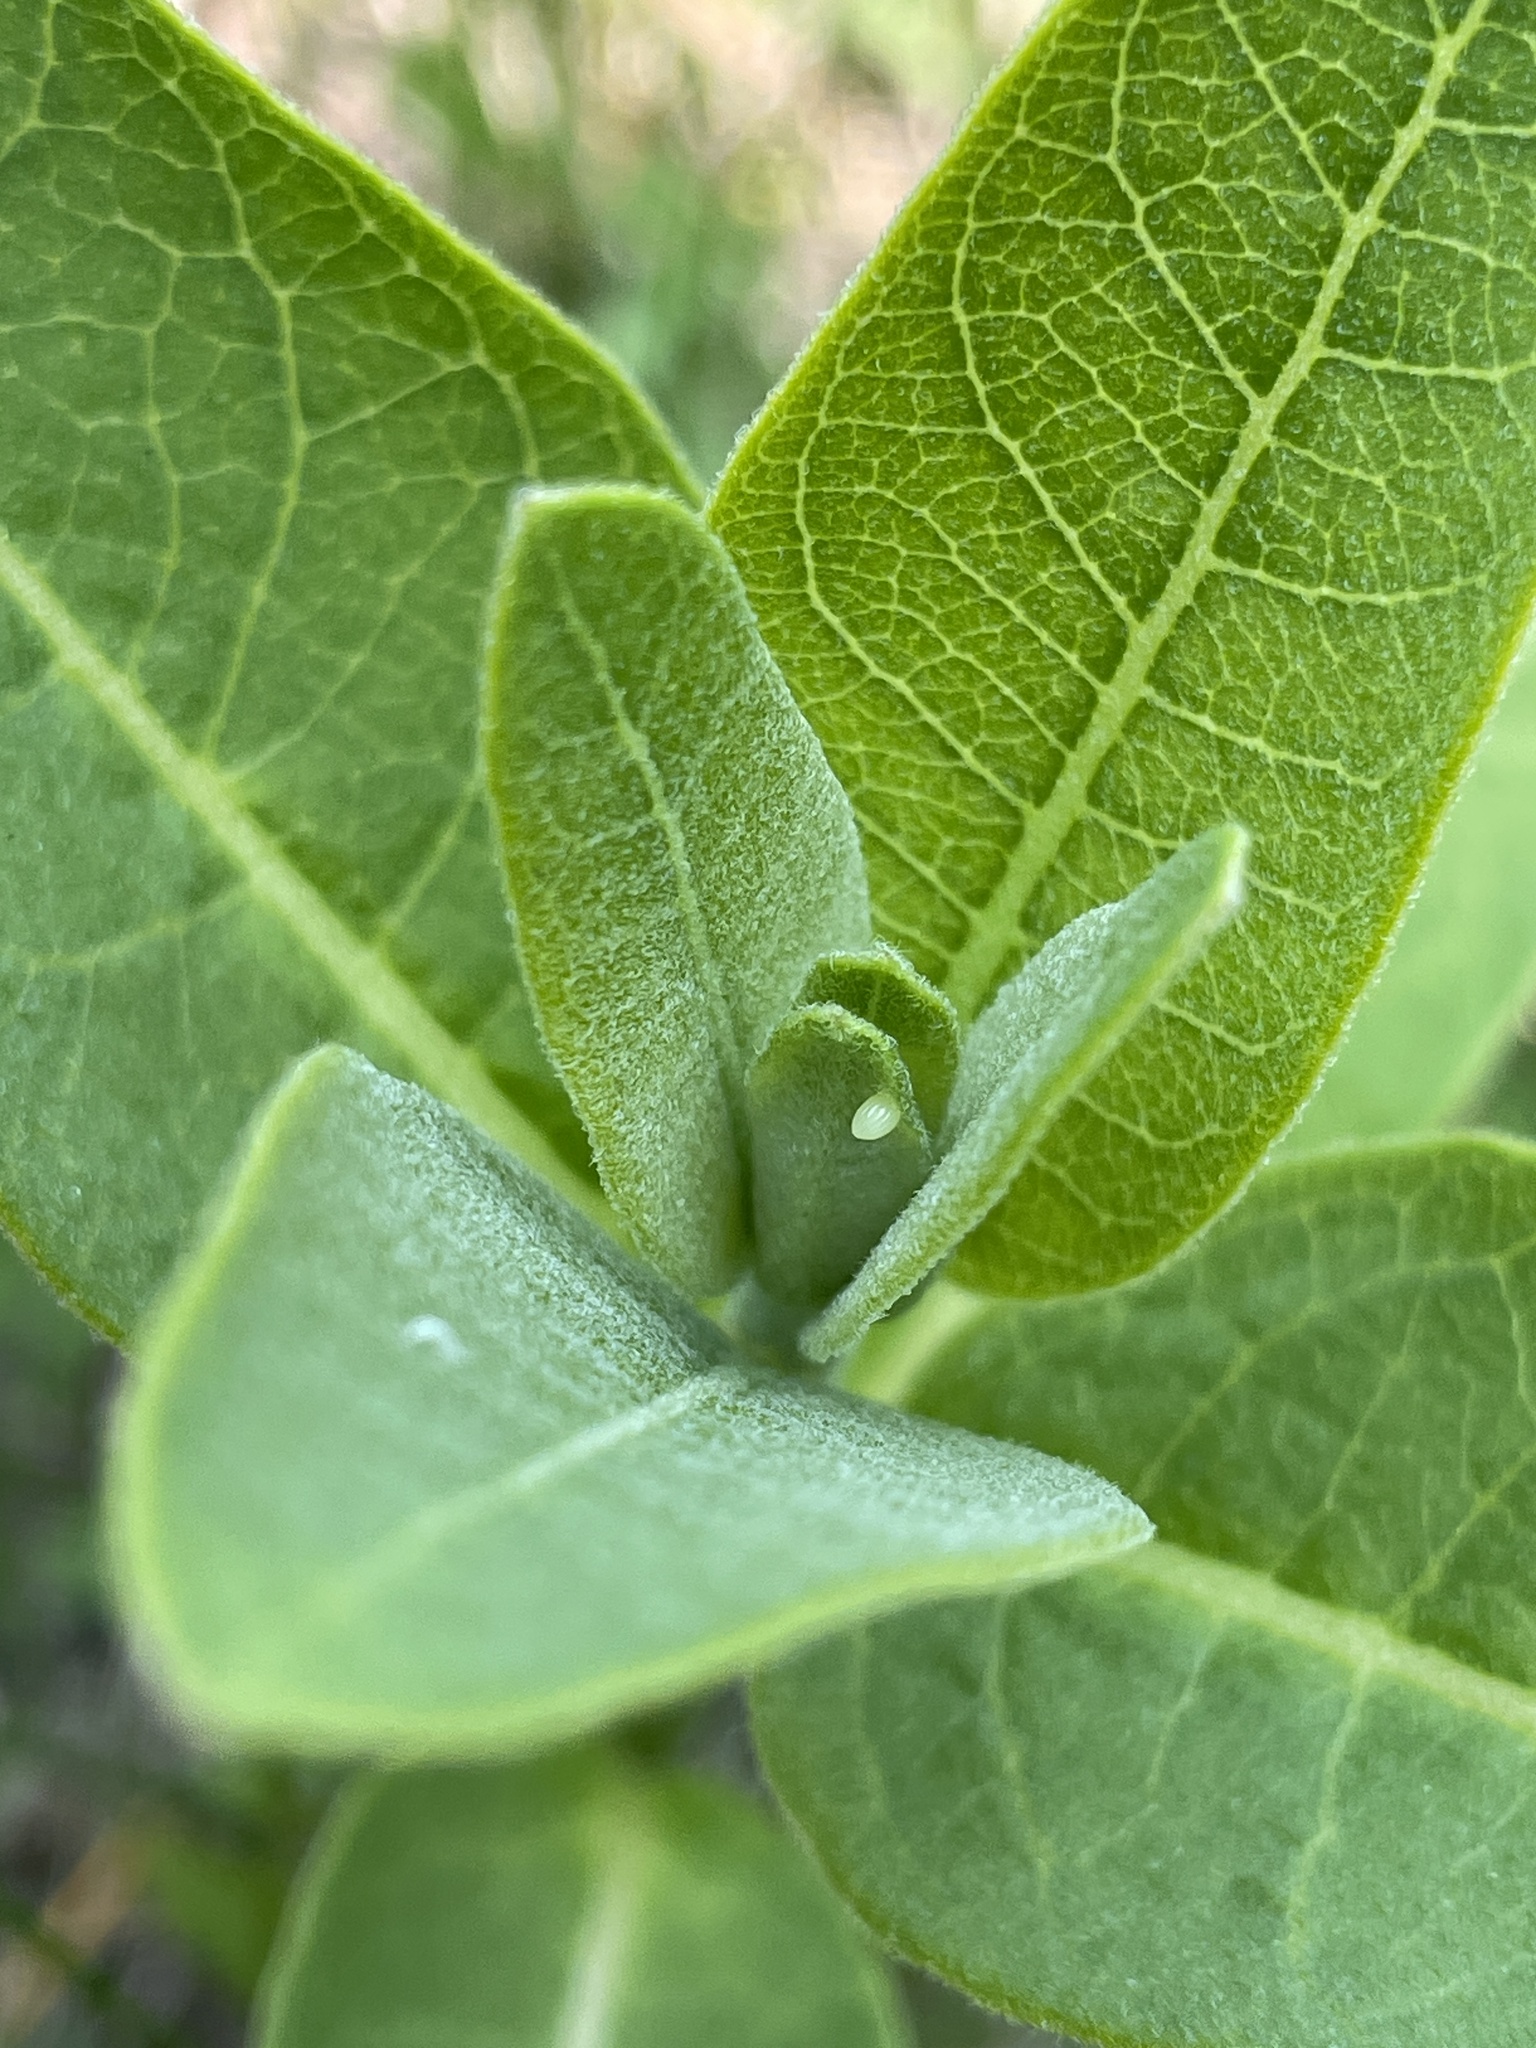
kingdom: Animalia
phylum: Arthropoda
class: Insecta
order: Lepidoptera
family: Nymphalidae
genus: Danaus
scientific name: Danaus plexippus
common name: Monarch
